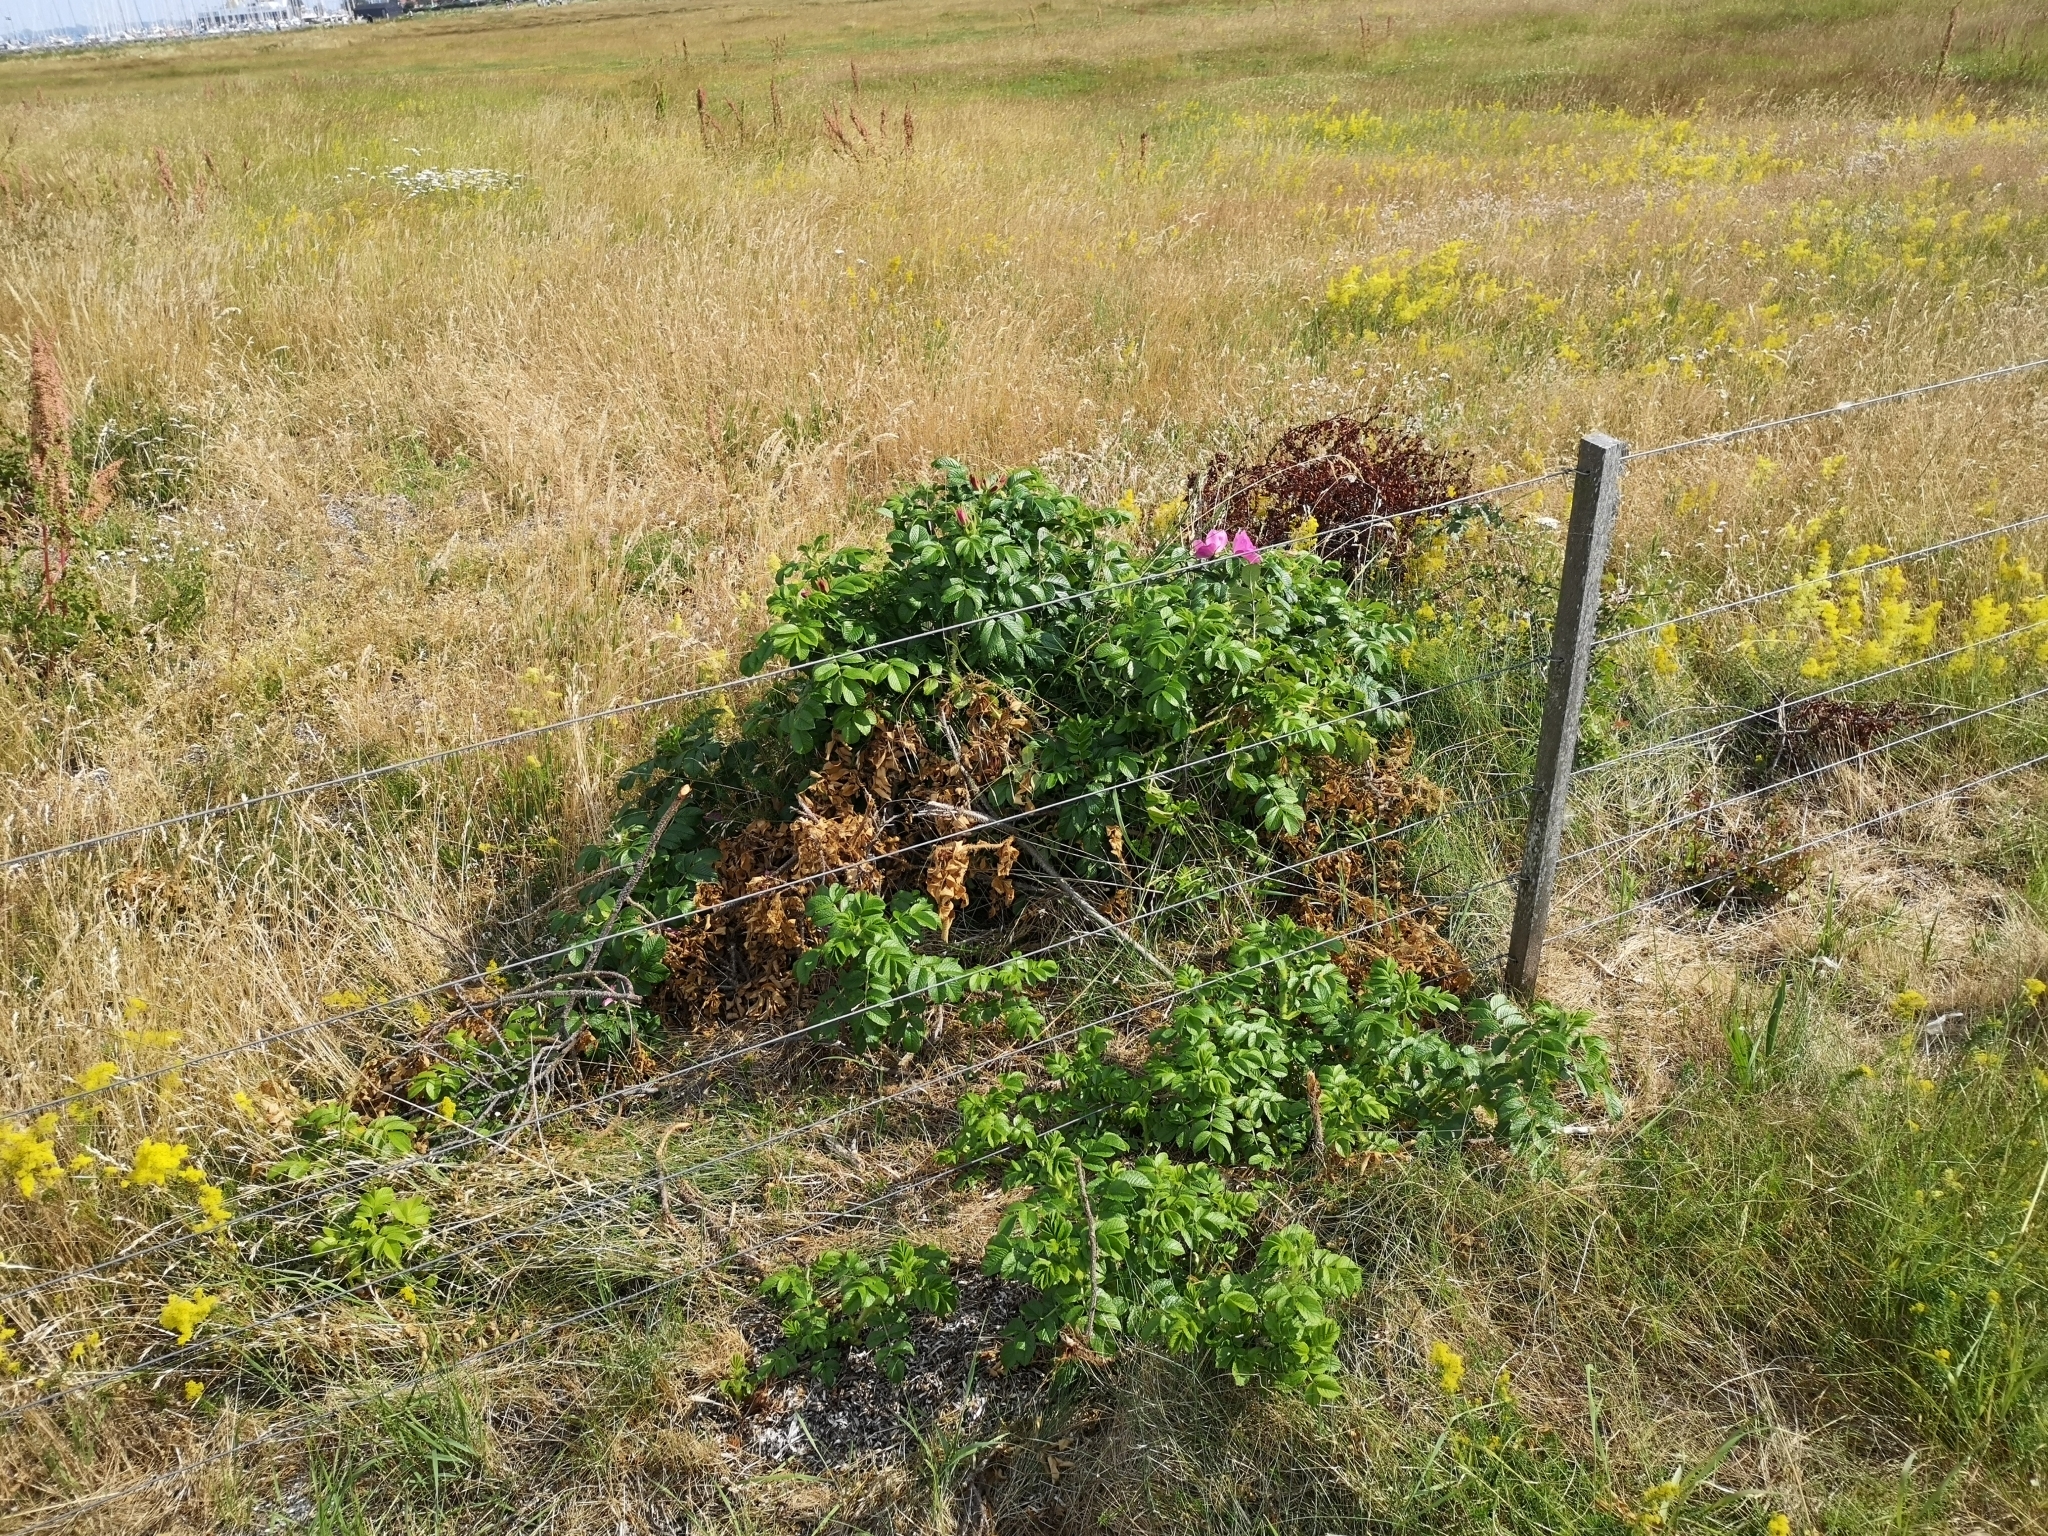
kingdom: Plantae
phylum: Tracheophyta
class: Magnoliopsida
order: Rosales
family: Rosaceae
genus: Rosa
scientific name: Rosa rugosa
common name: Japanese rose
